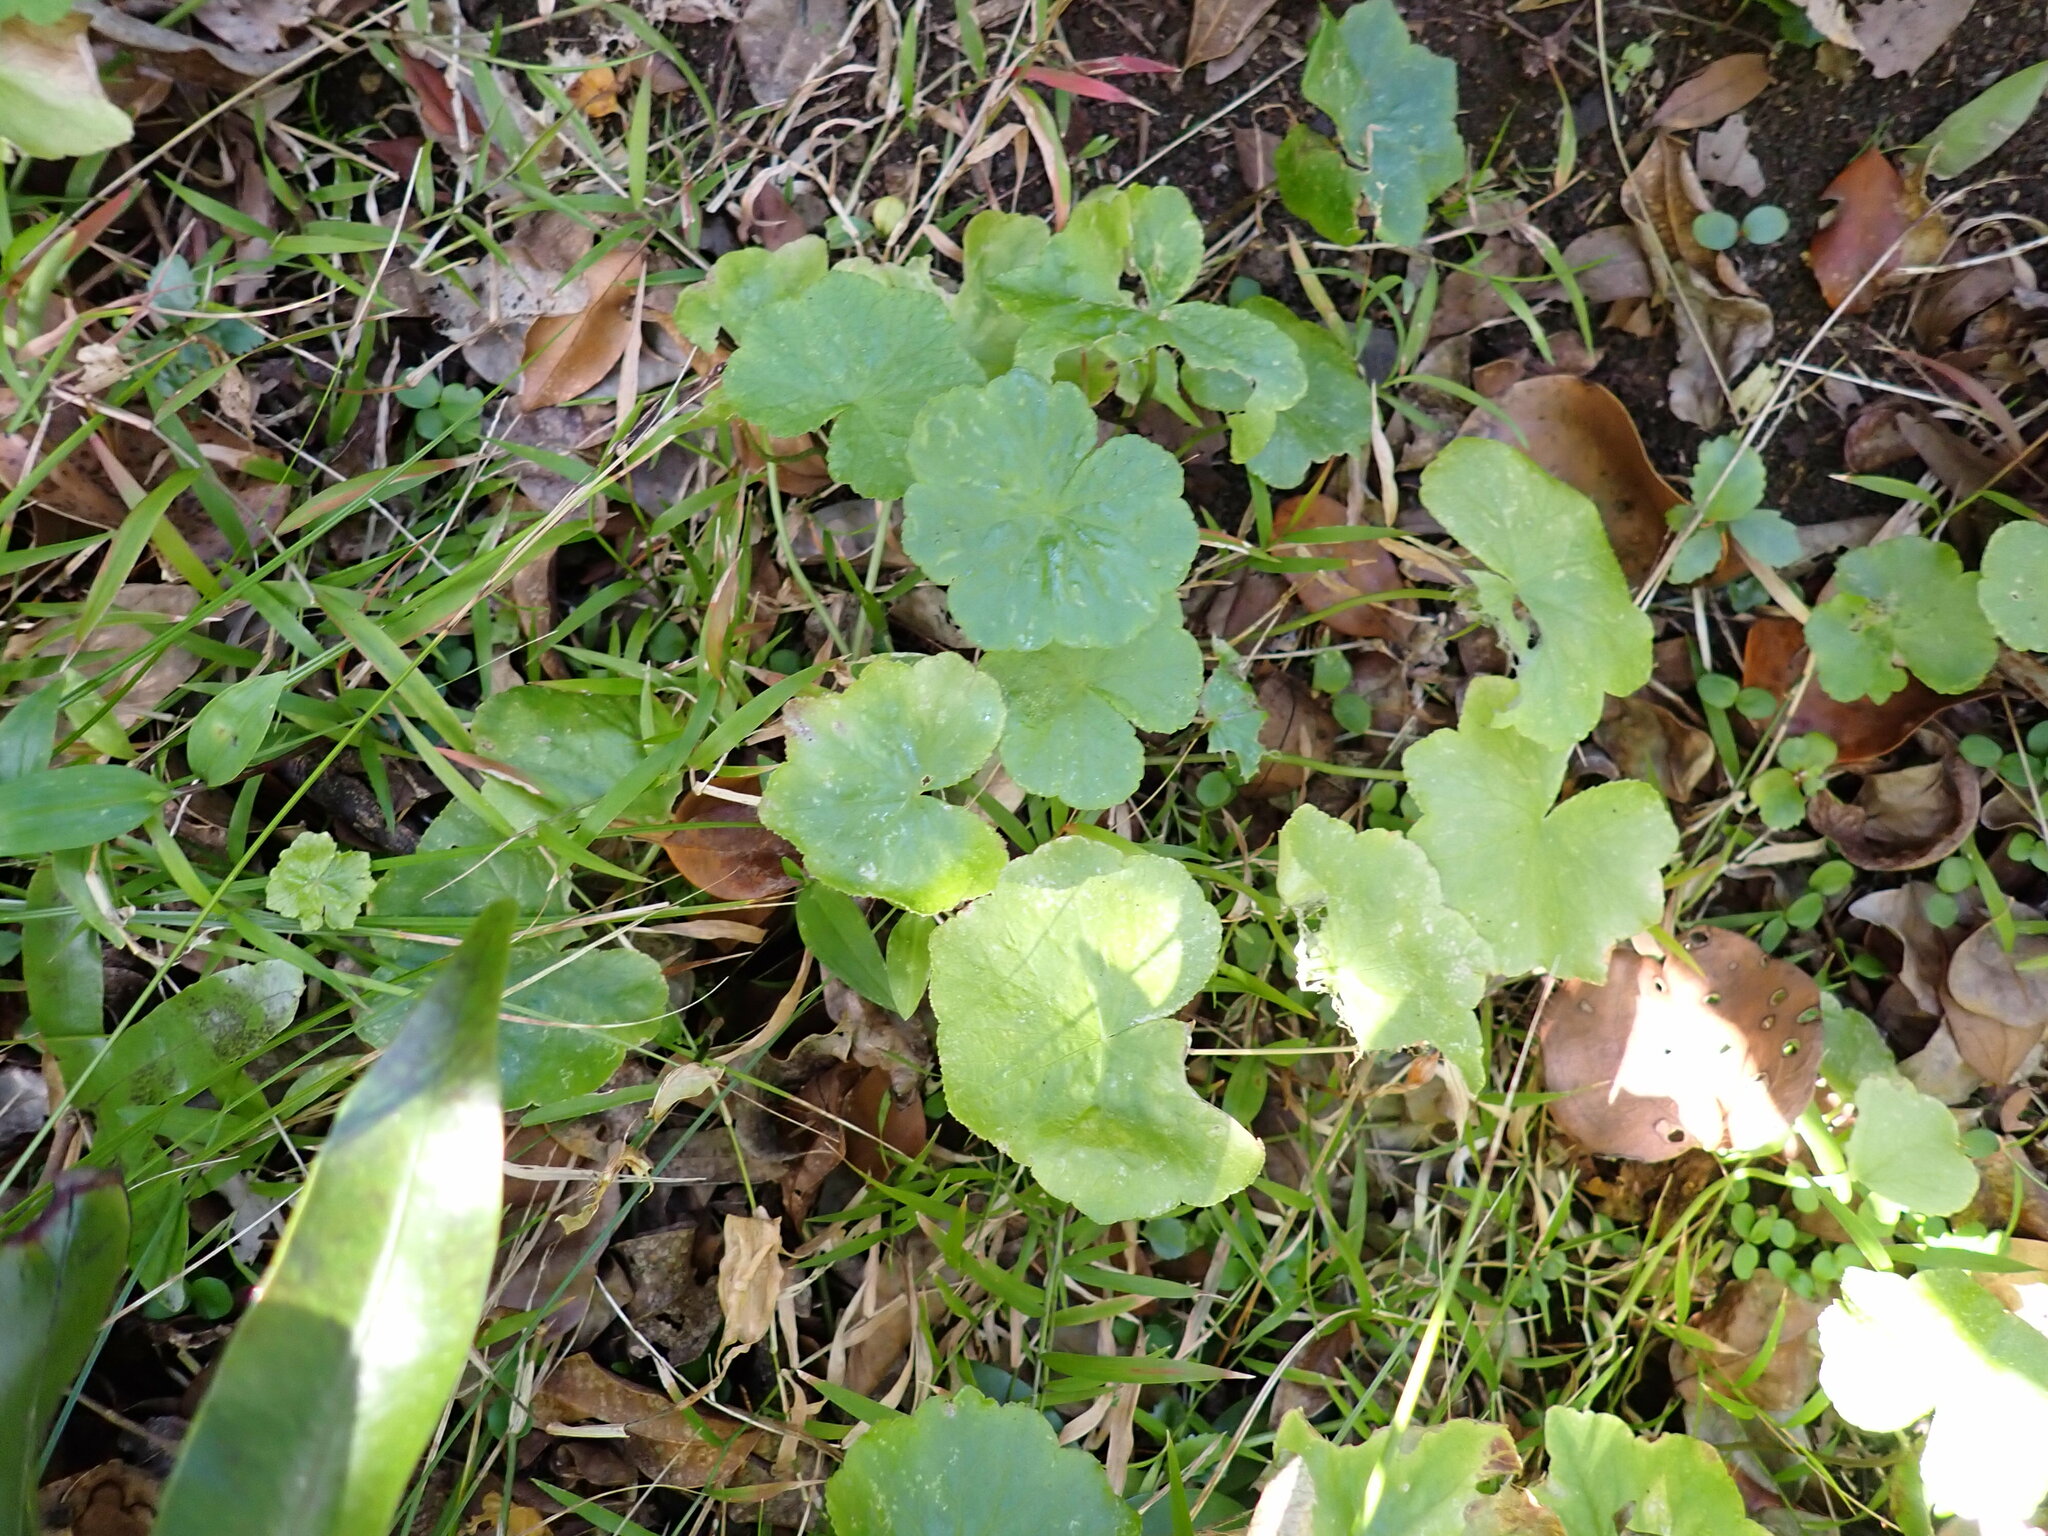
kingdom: Plantae
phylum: Tracheophyta
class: Magnoliopsida
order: Apiales
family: Araliaceae
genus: Hydrocotyle
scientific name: Hydrocotyle hirta
